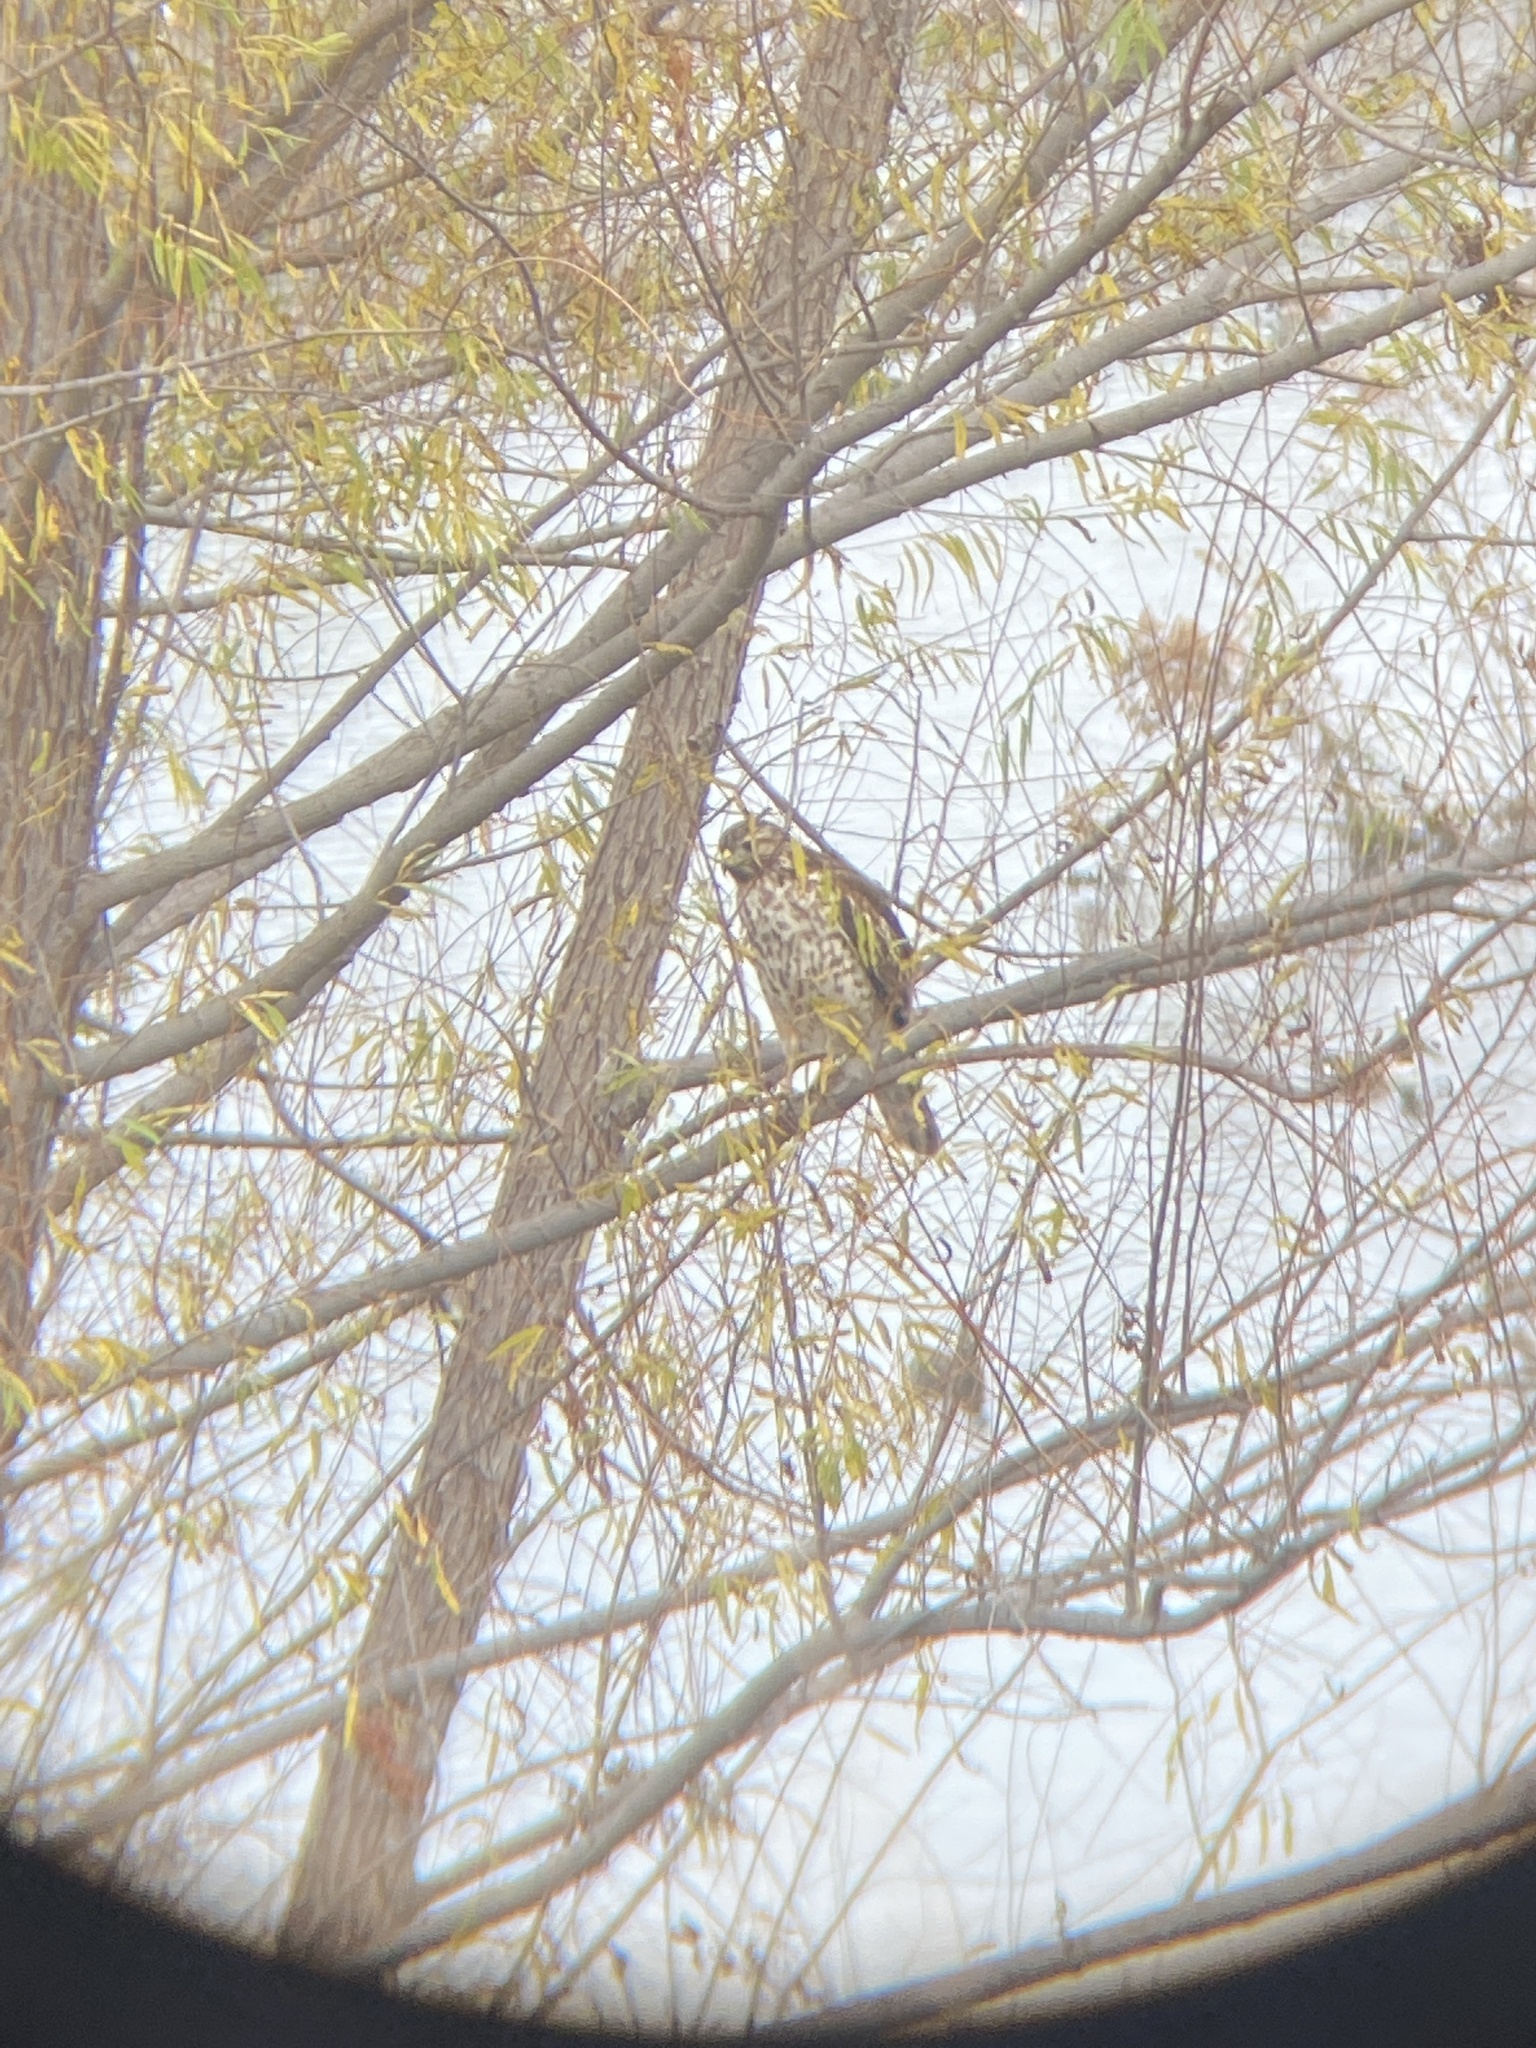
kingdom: Animalia
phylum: Chordata
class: Aves
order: Accipitriformes
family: Accipitridae
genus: Buteo
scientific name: Buteo lineatus
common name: Red-shouldered hawk
